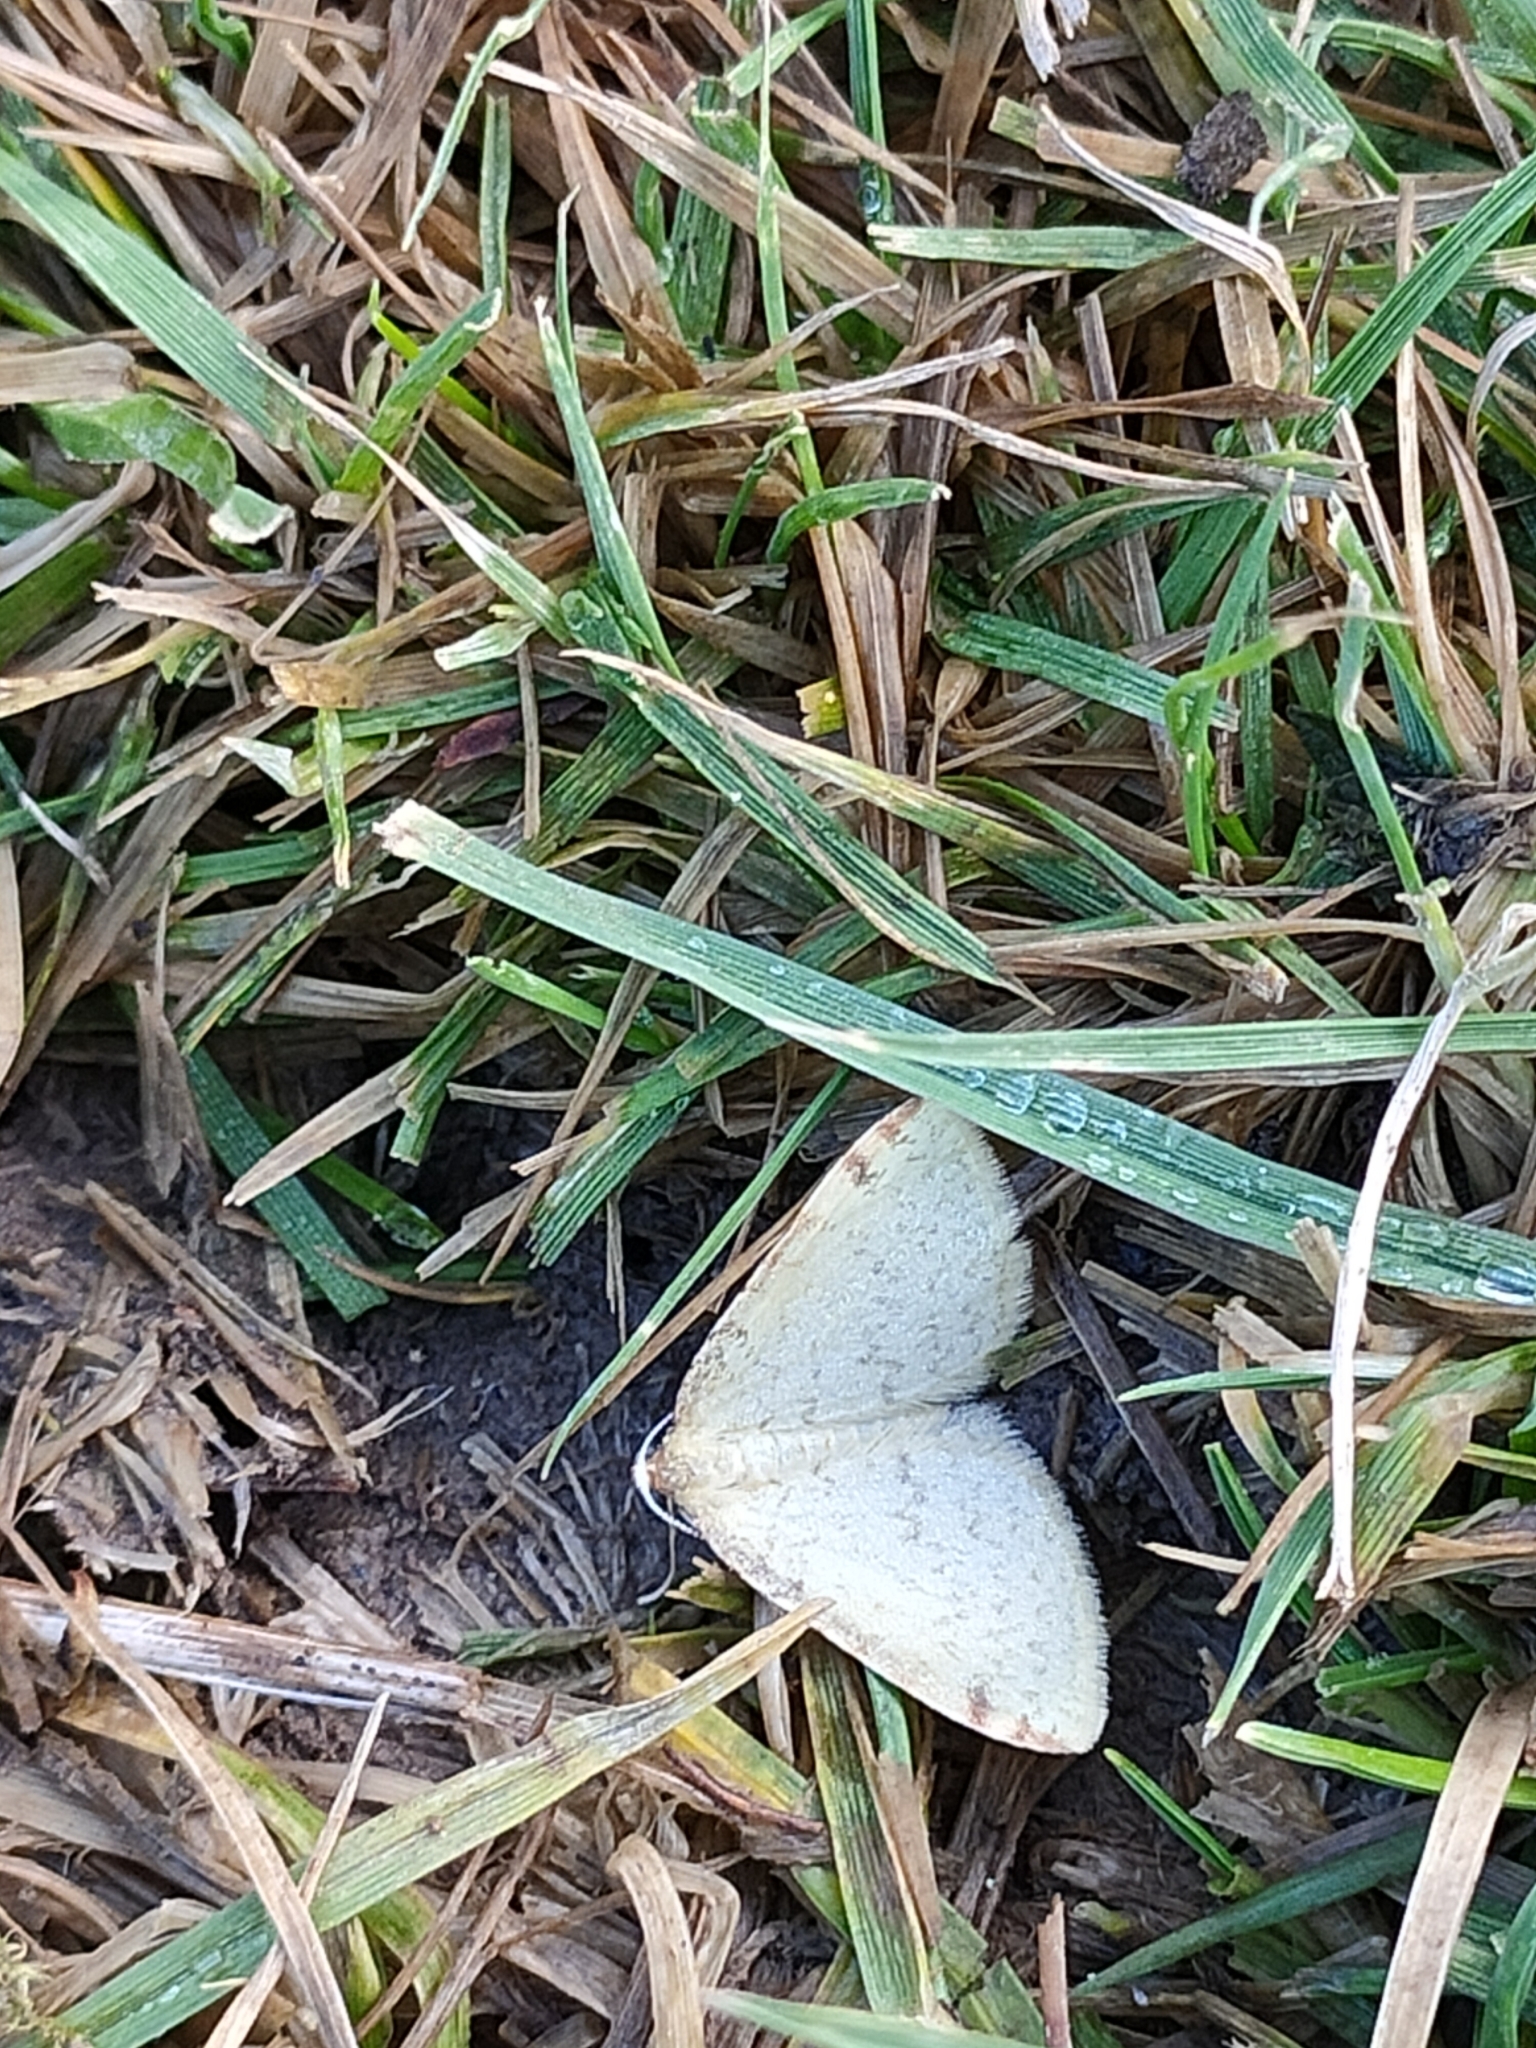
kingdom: Animalia
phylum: Arthropoda
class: Insecta
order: Lepidoptera
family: Geometridae
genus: Epiphryne
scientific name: Epiphryne undosata
